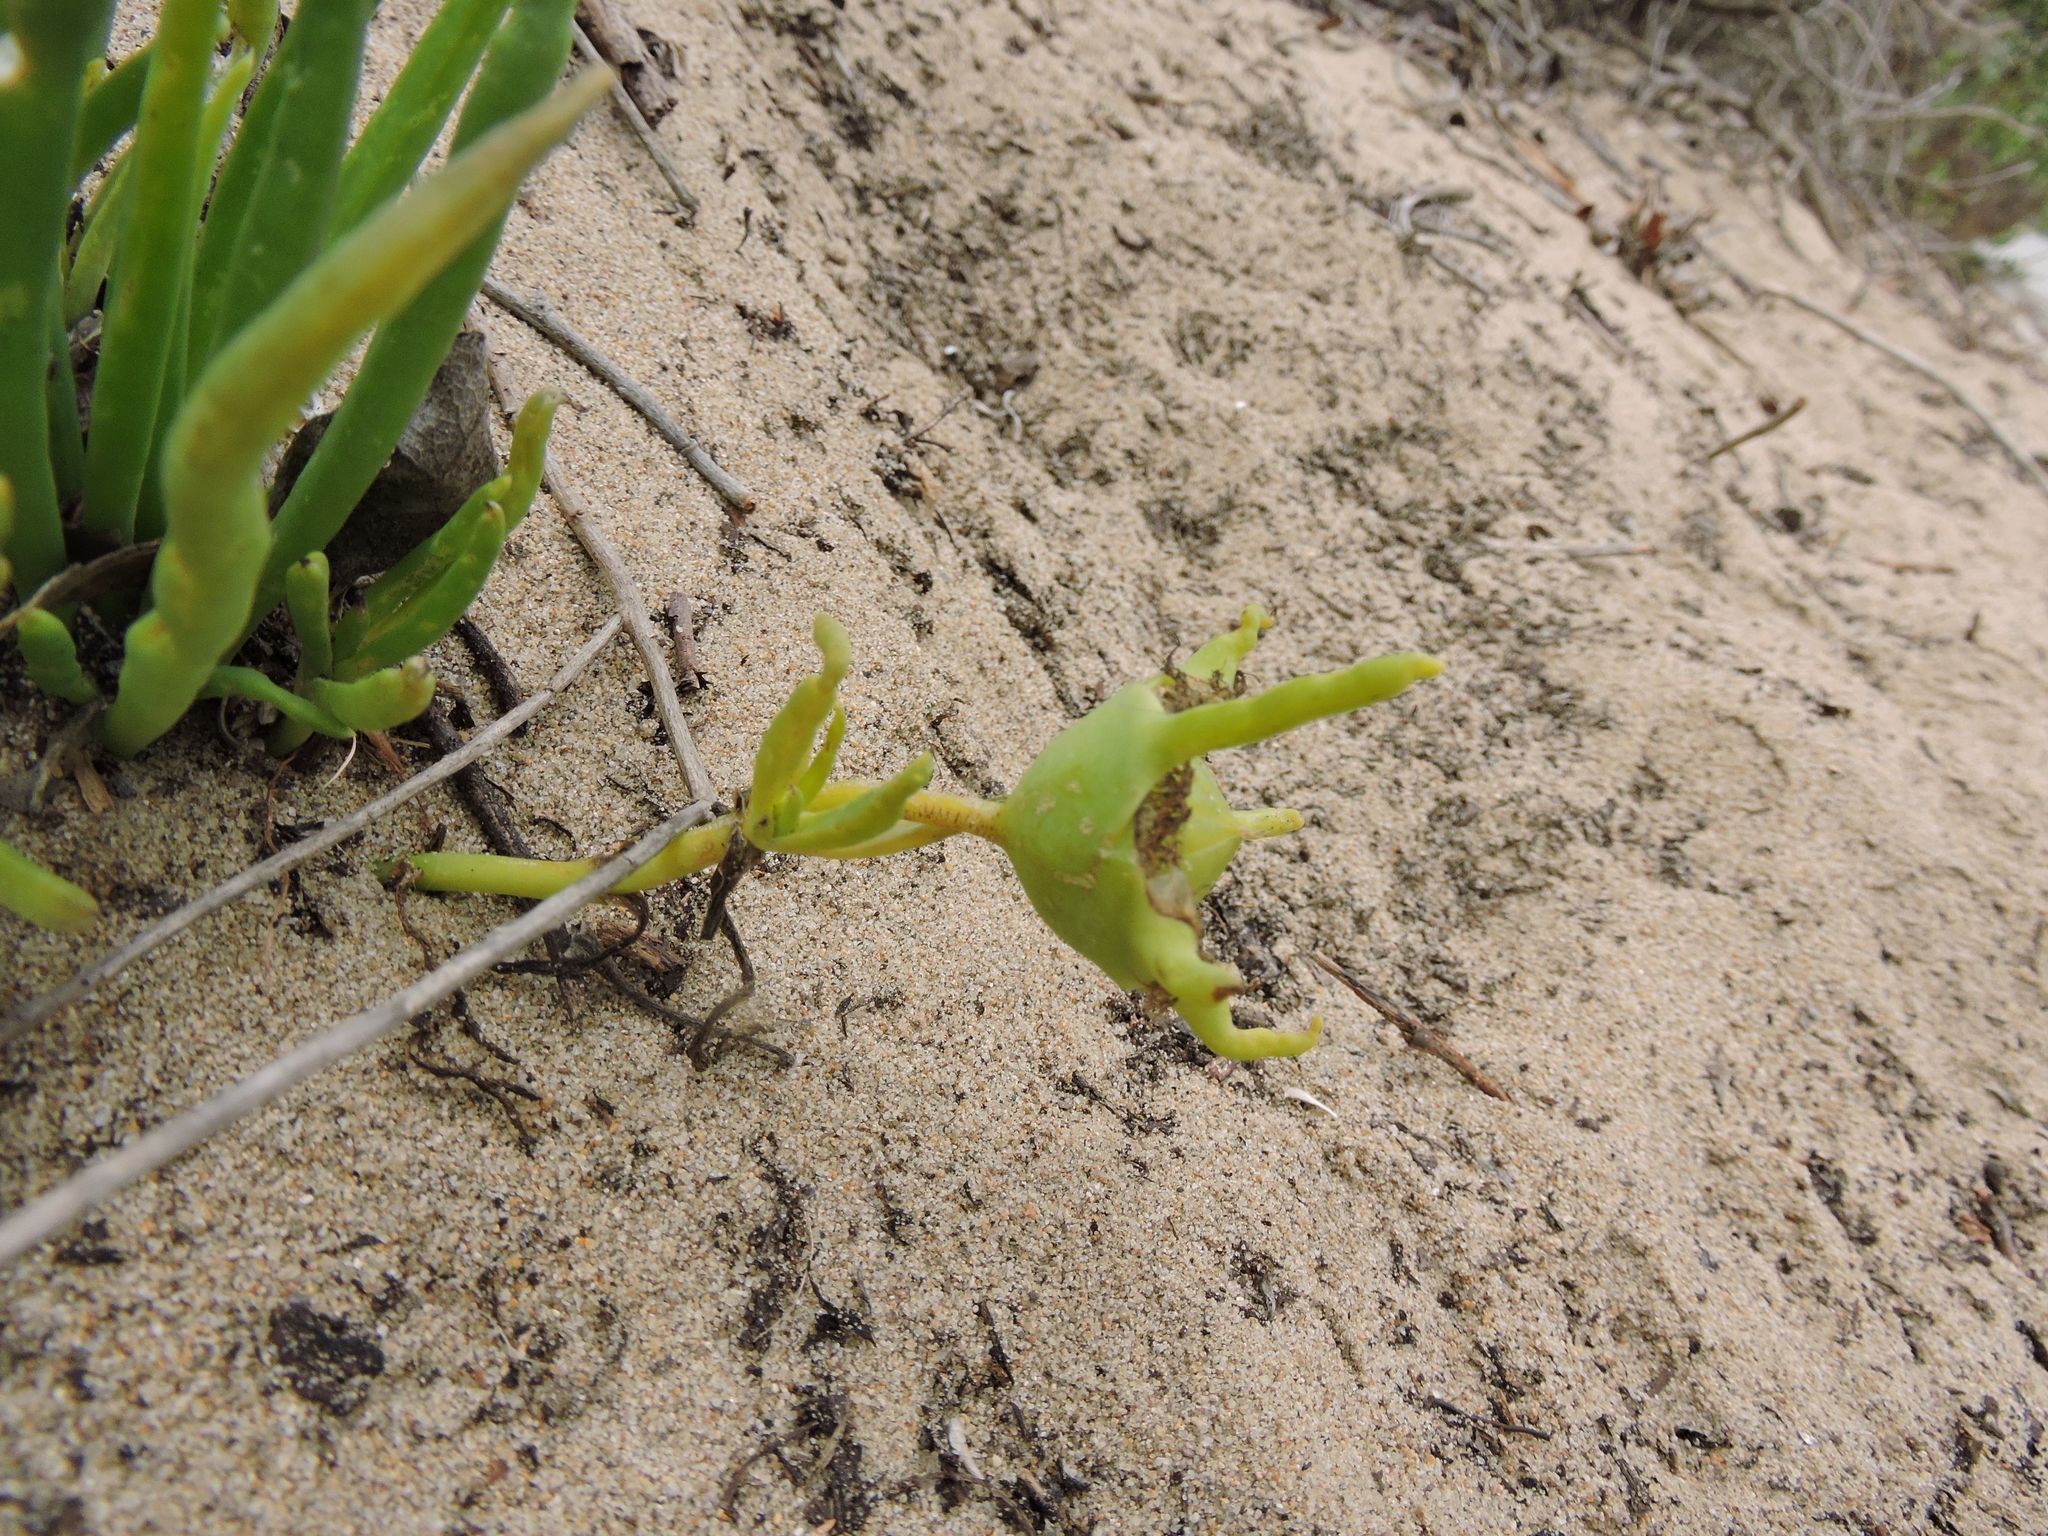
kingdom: Plantae
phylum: Tracheophyta
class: Magnoliopsida
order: Caryophyllales
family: Aizoaceae
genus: Conicosia
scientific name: Conicosia pugioniformis
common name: Narrow-leaved iceplant
